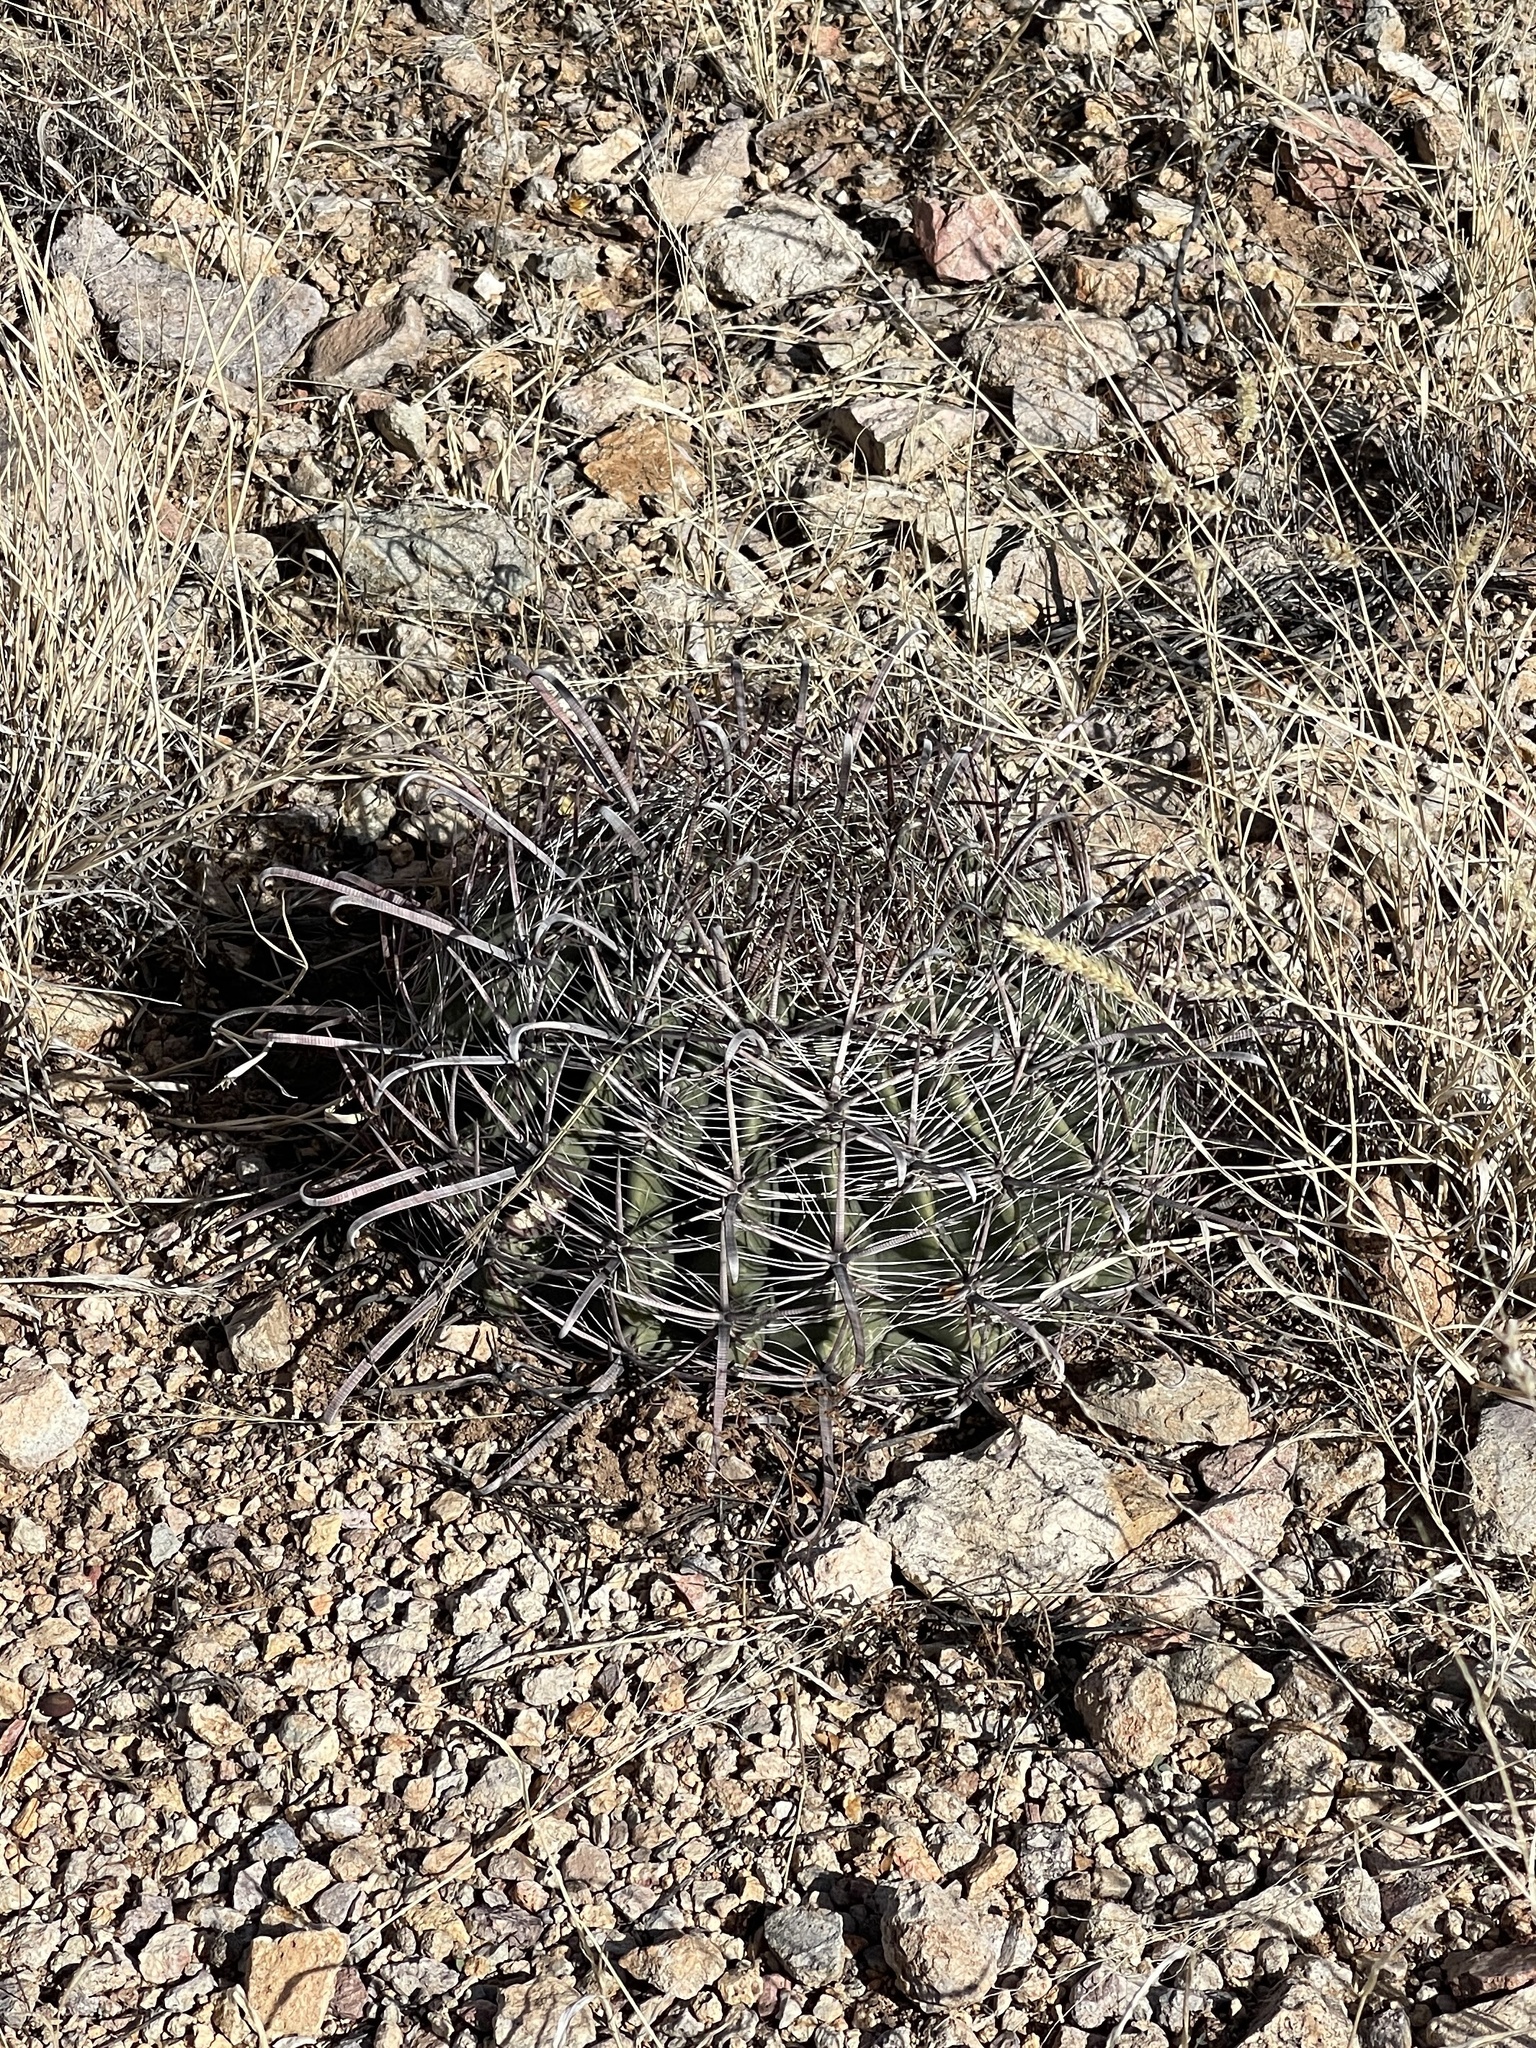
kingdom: Plantae
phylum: Tracheophyta
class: Magnoliopsida
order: Caryophyllales
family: Cactaceae
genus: Ferocactus
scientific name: Ferocactus wislizeni
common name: Candy barrel cactus
